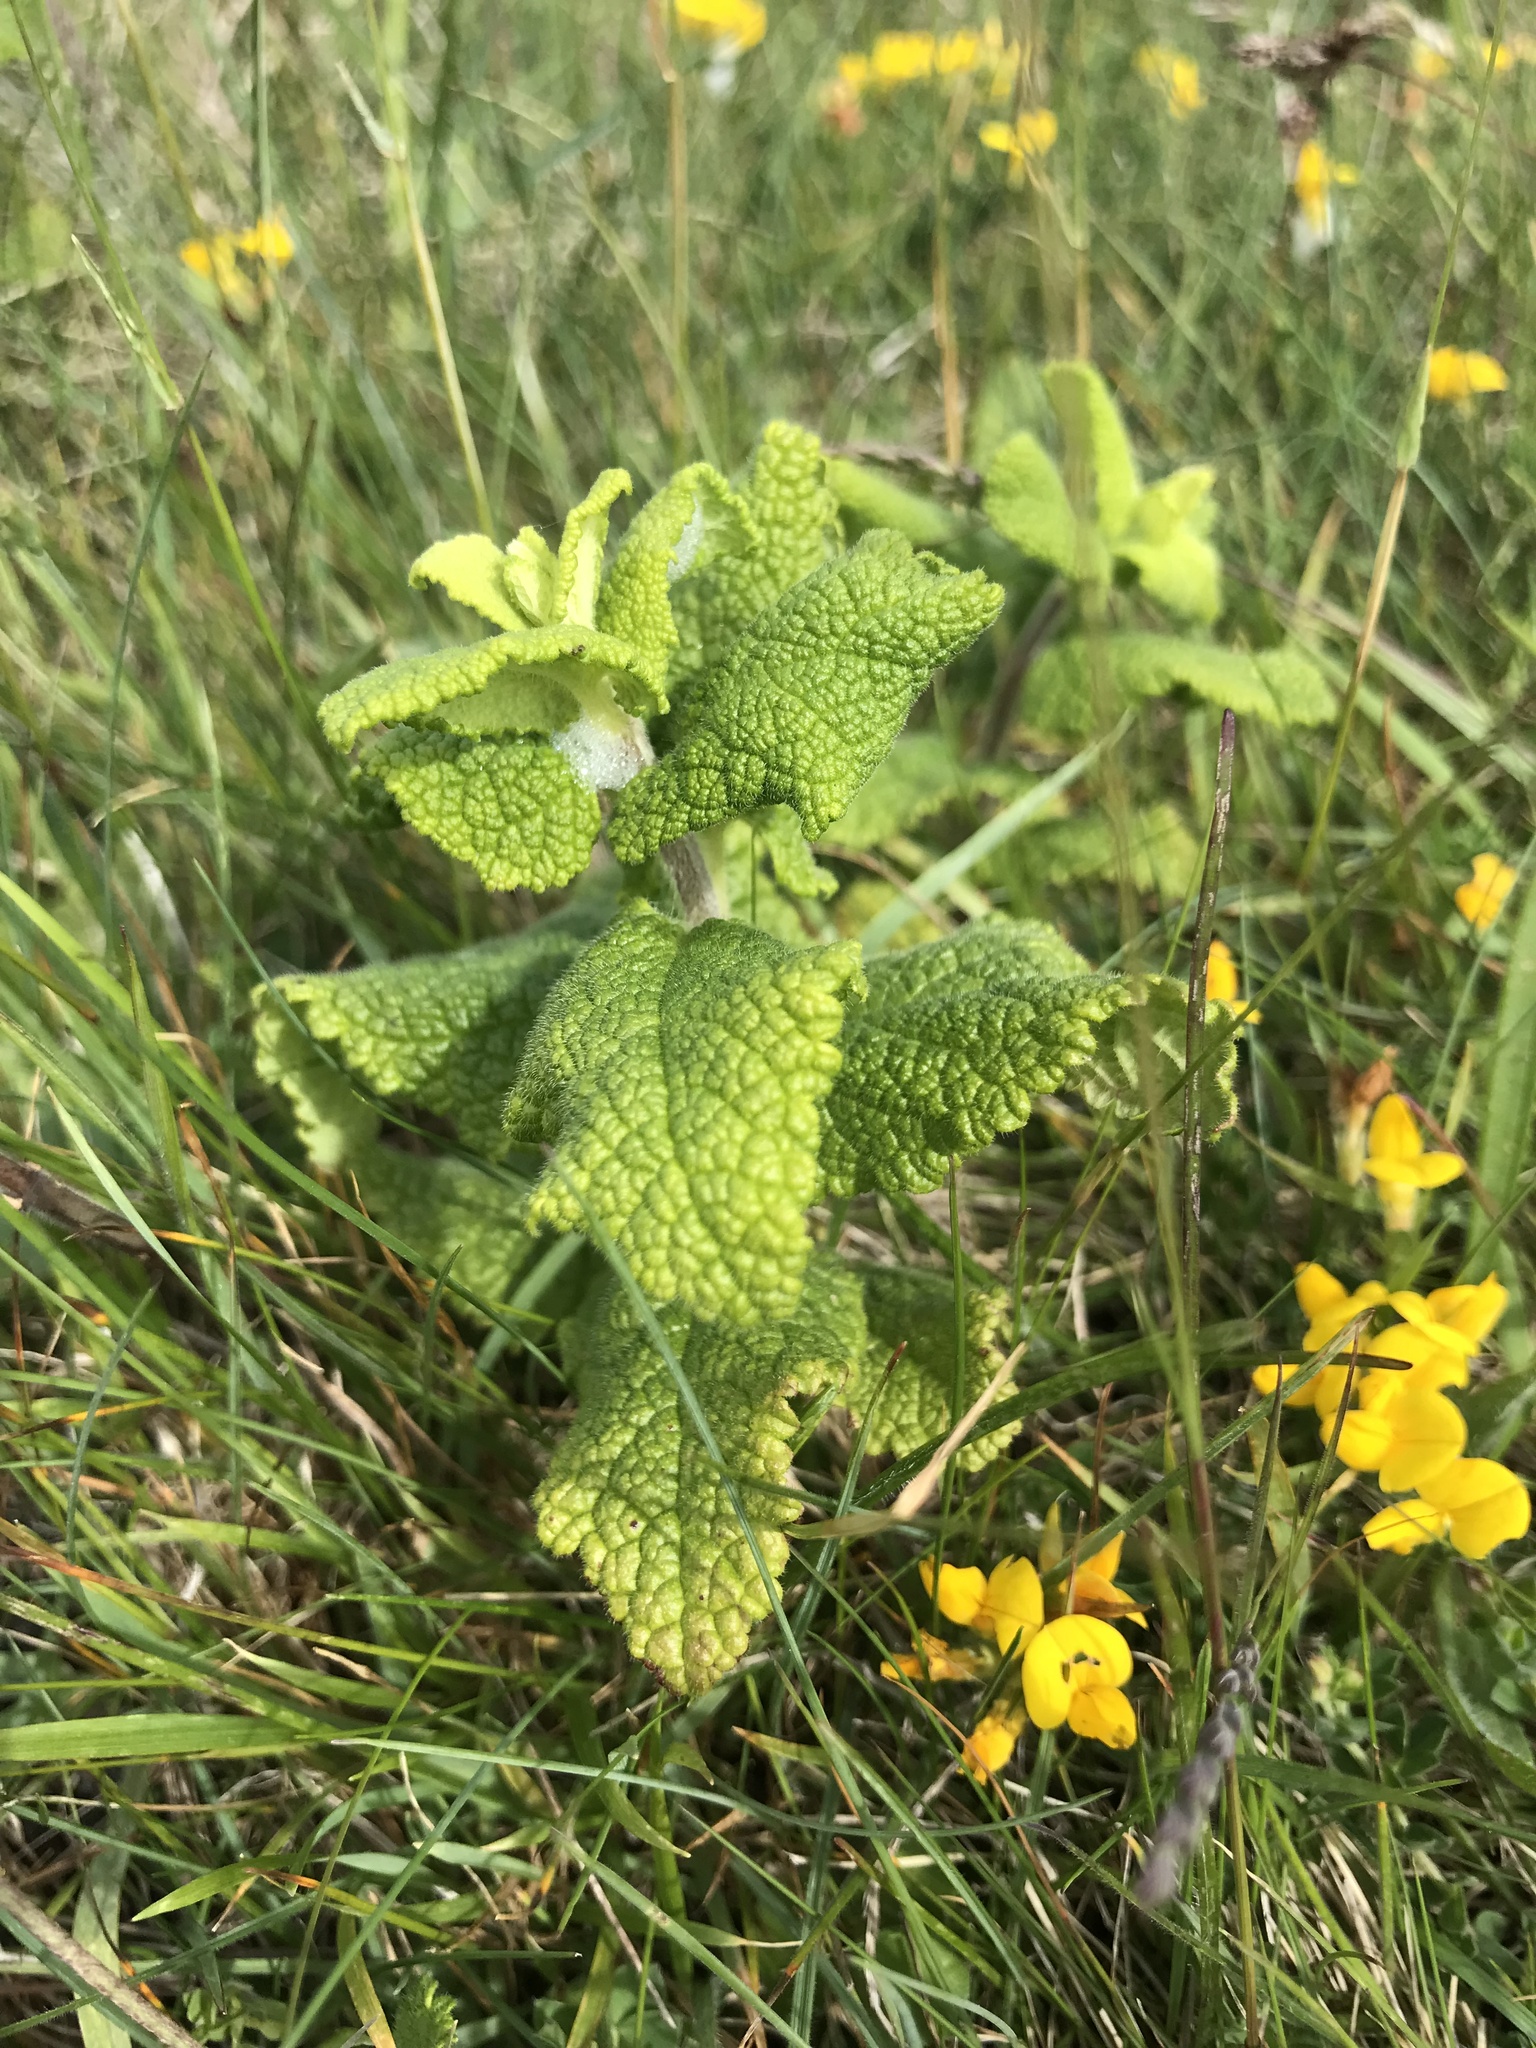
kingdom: Plantae
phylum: Tracheophyta
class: Magnoliopsida
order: Lamiales
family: Lamiaceae
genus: Teucrium
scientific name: Teucrium scorodonia
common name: Woodland germander
